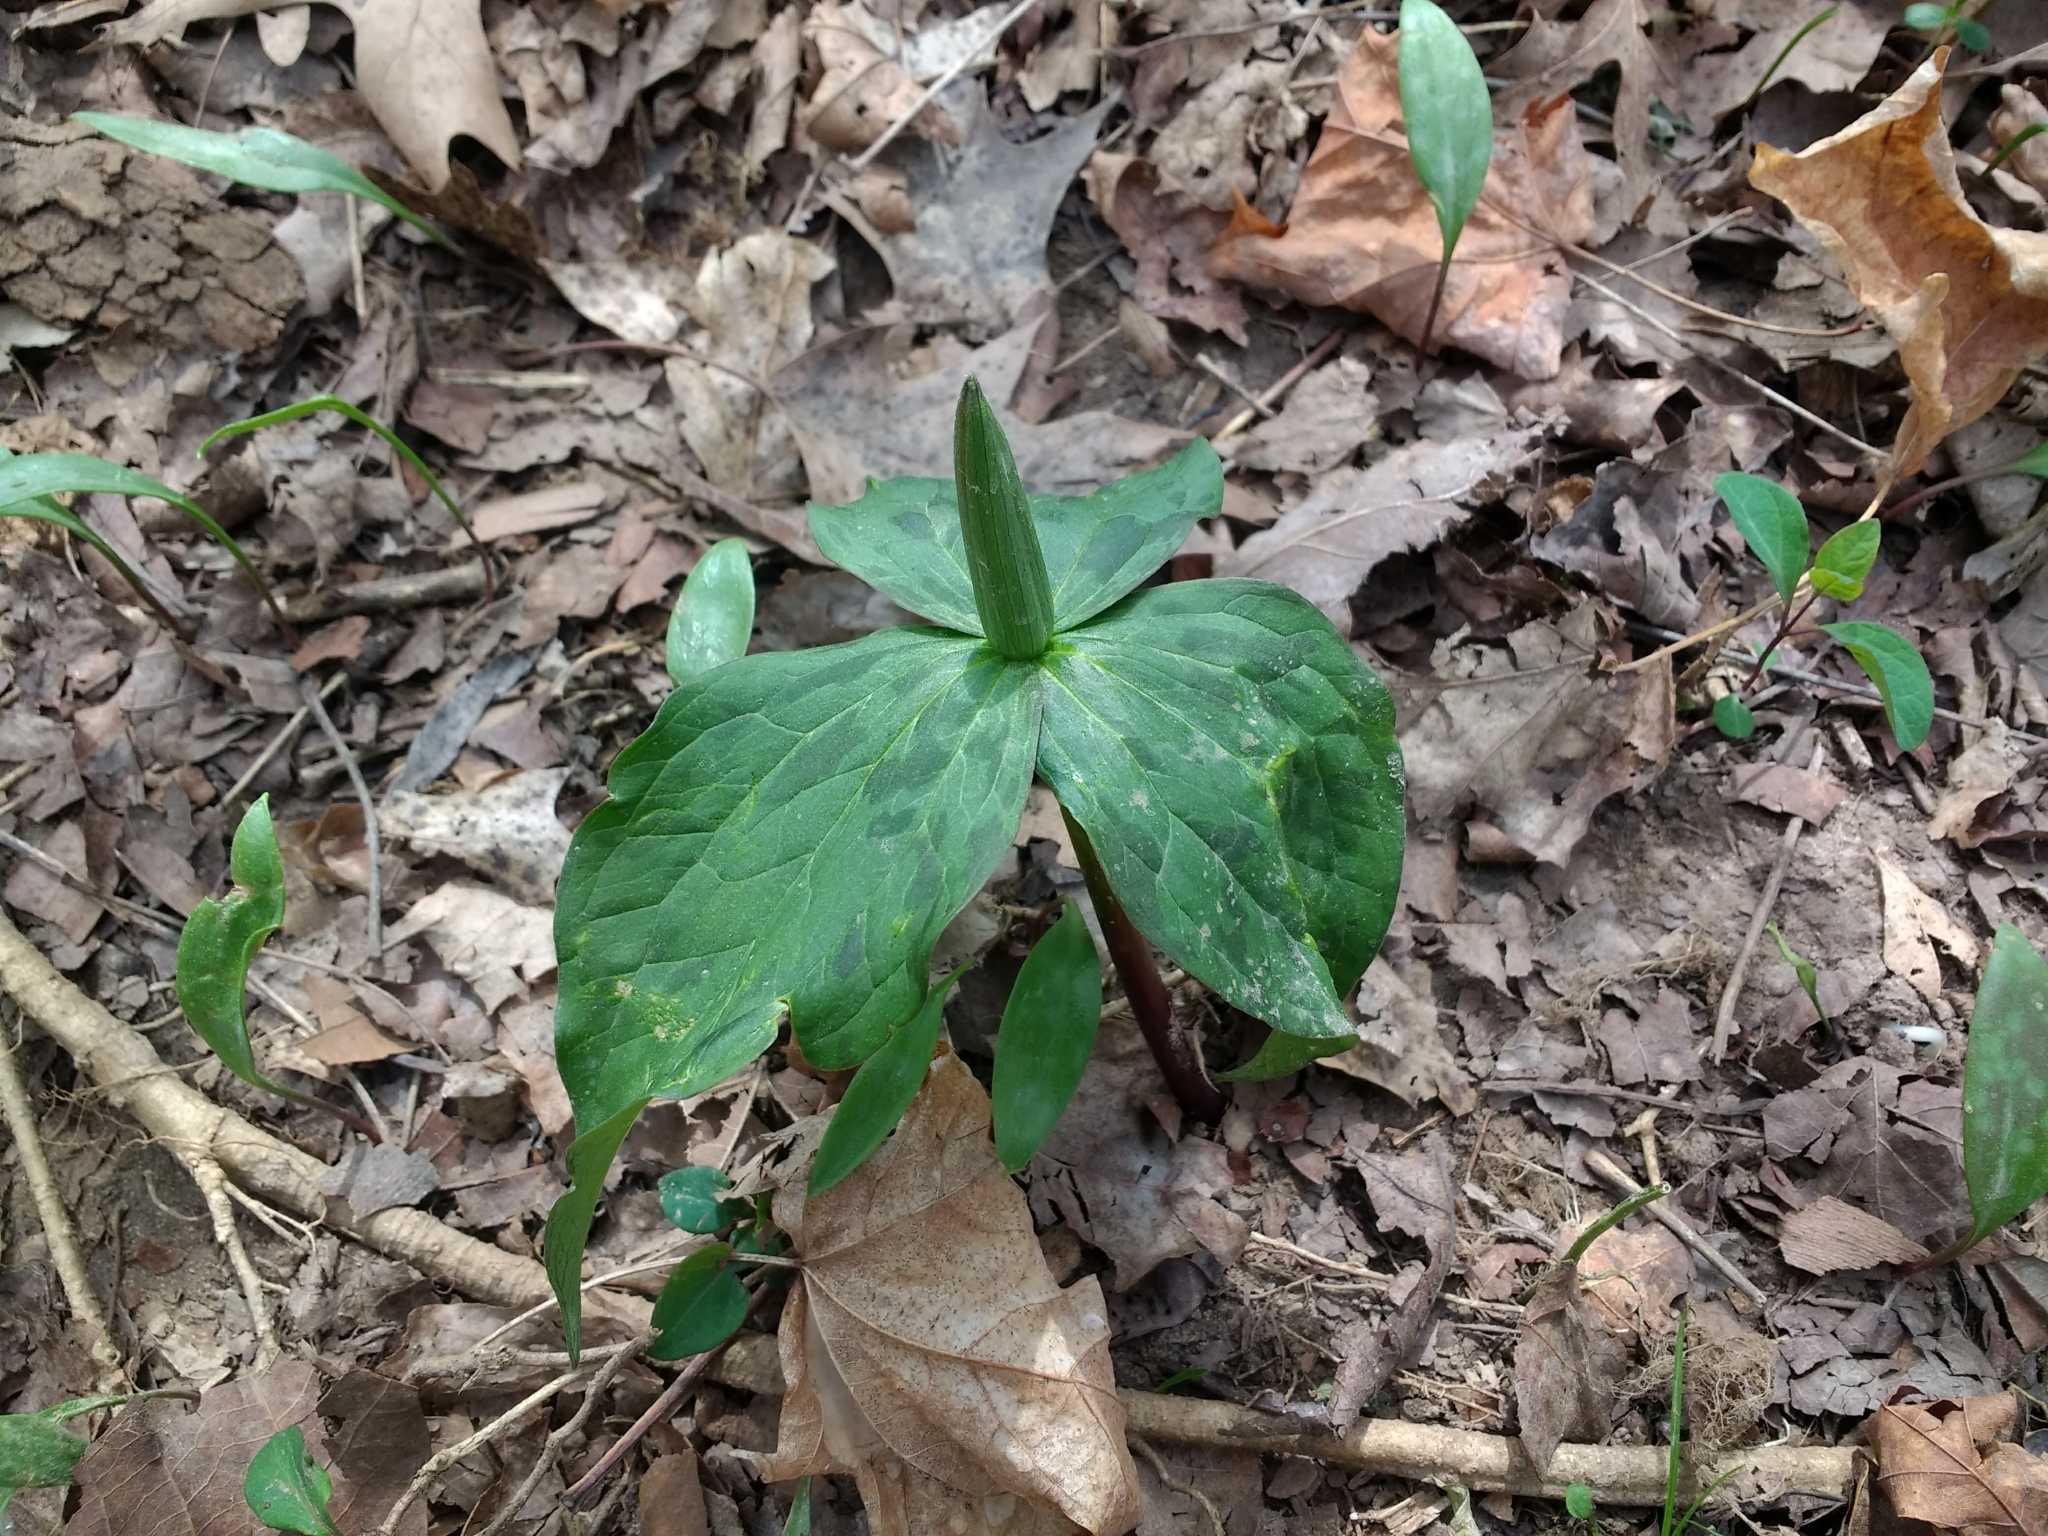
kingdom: Plantae
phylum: Tracheophyta
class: Liliopsida
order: Liliales
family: Melanthiaceae
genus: Trillium
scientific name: Trillium viridescens
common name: Ozark green trillium
